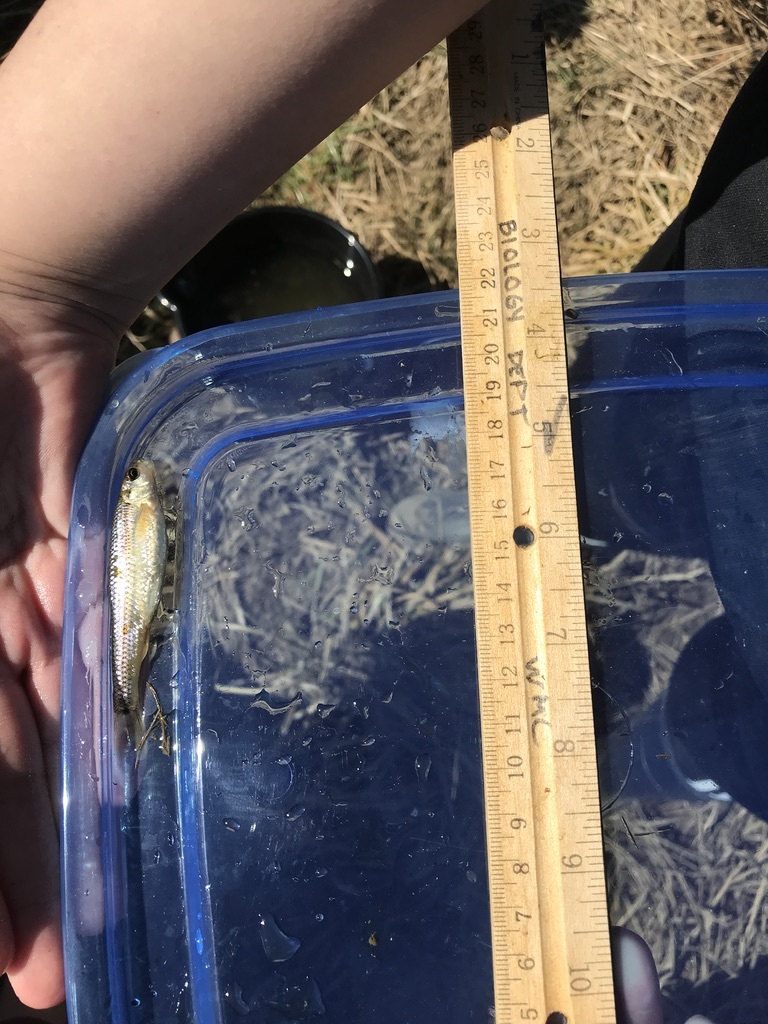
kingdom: Animalia
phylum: Chordata
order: Cypriniformes
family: Cyprinidae
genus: Pimephales
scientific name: Pimephales notatus
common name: Bluntnose minnow
